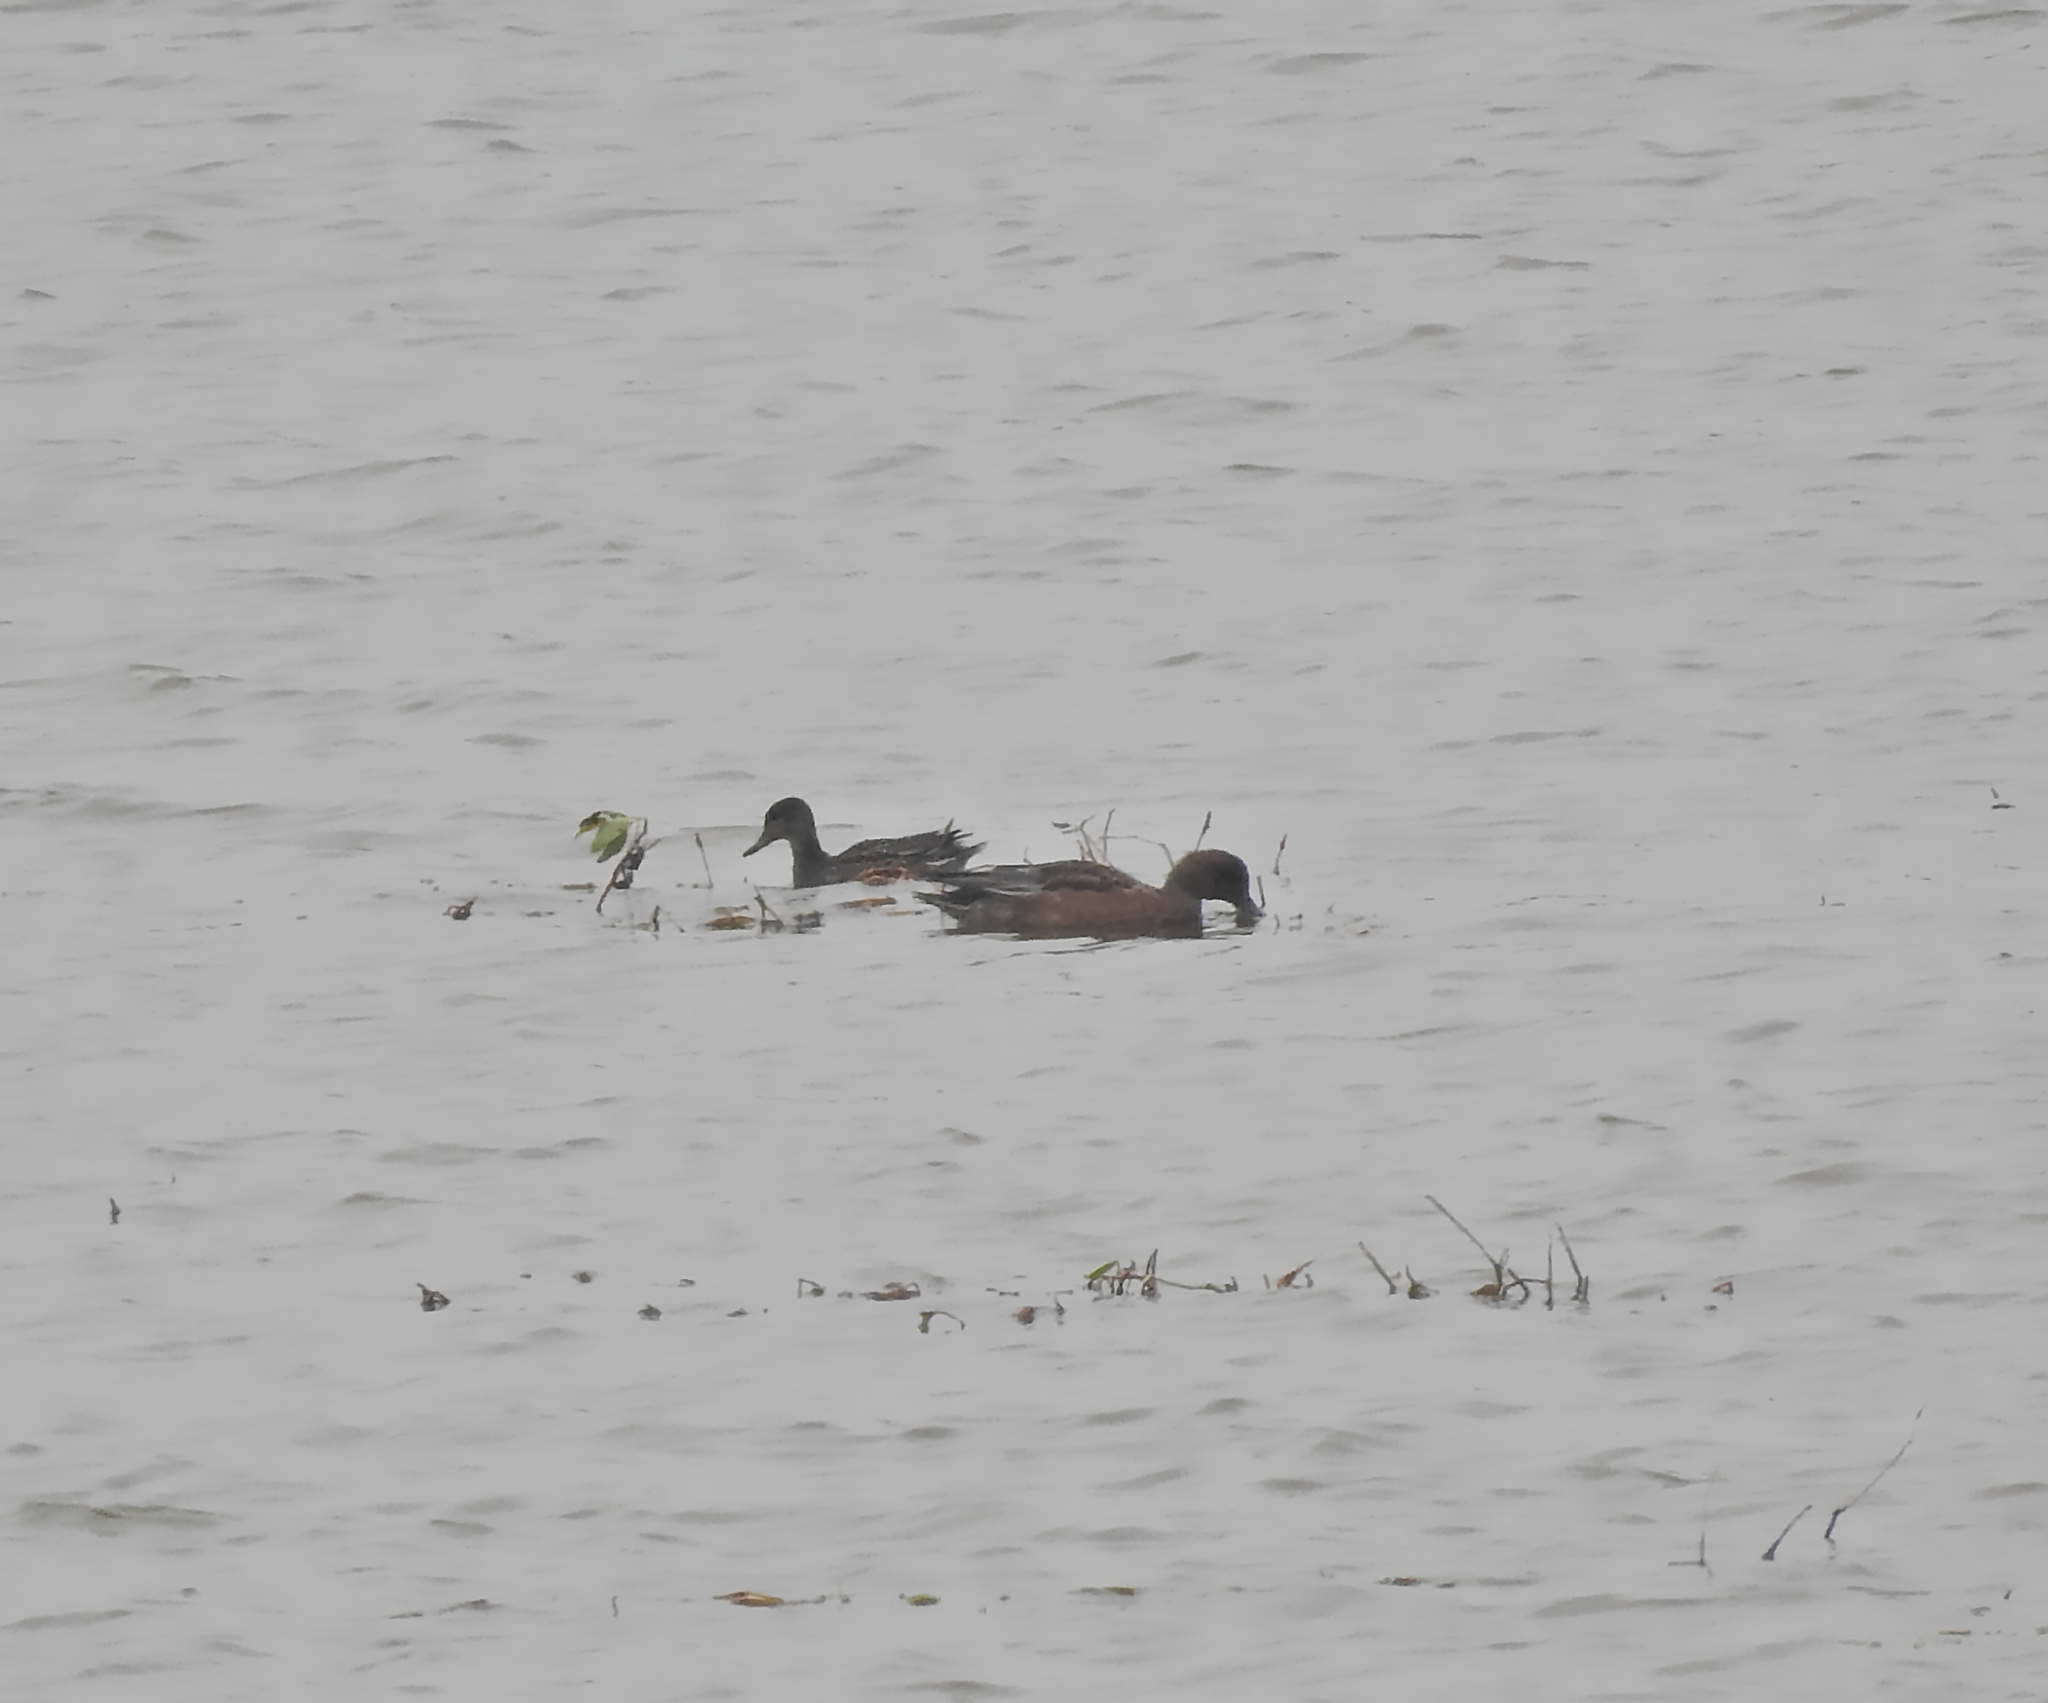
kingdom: Animalia
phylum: Chordata
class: Aves
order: Anseriformes
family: Anatidae
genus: Mareca
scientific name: Mareca penelope
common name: Eurasian wigeon
